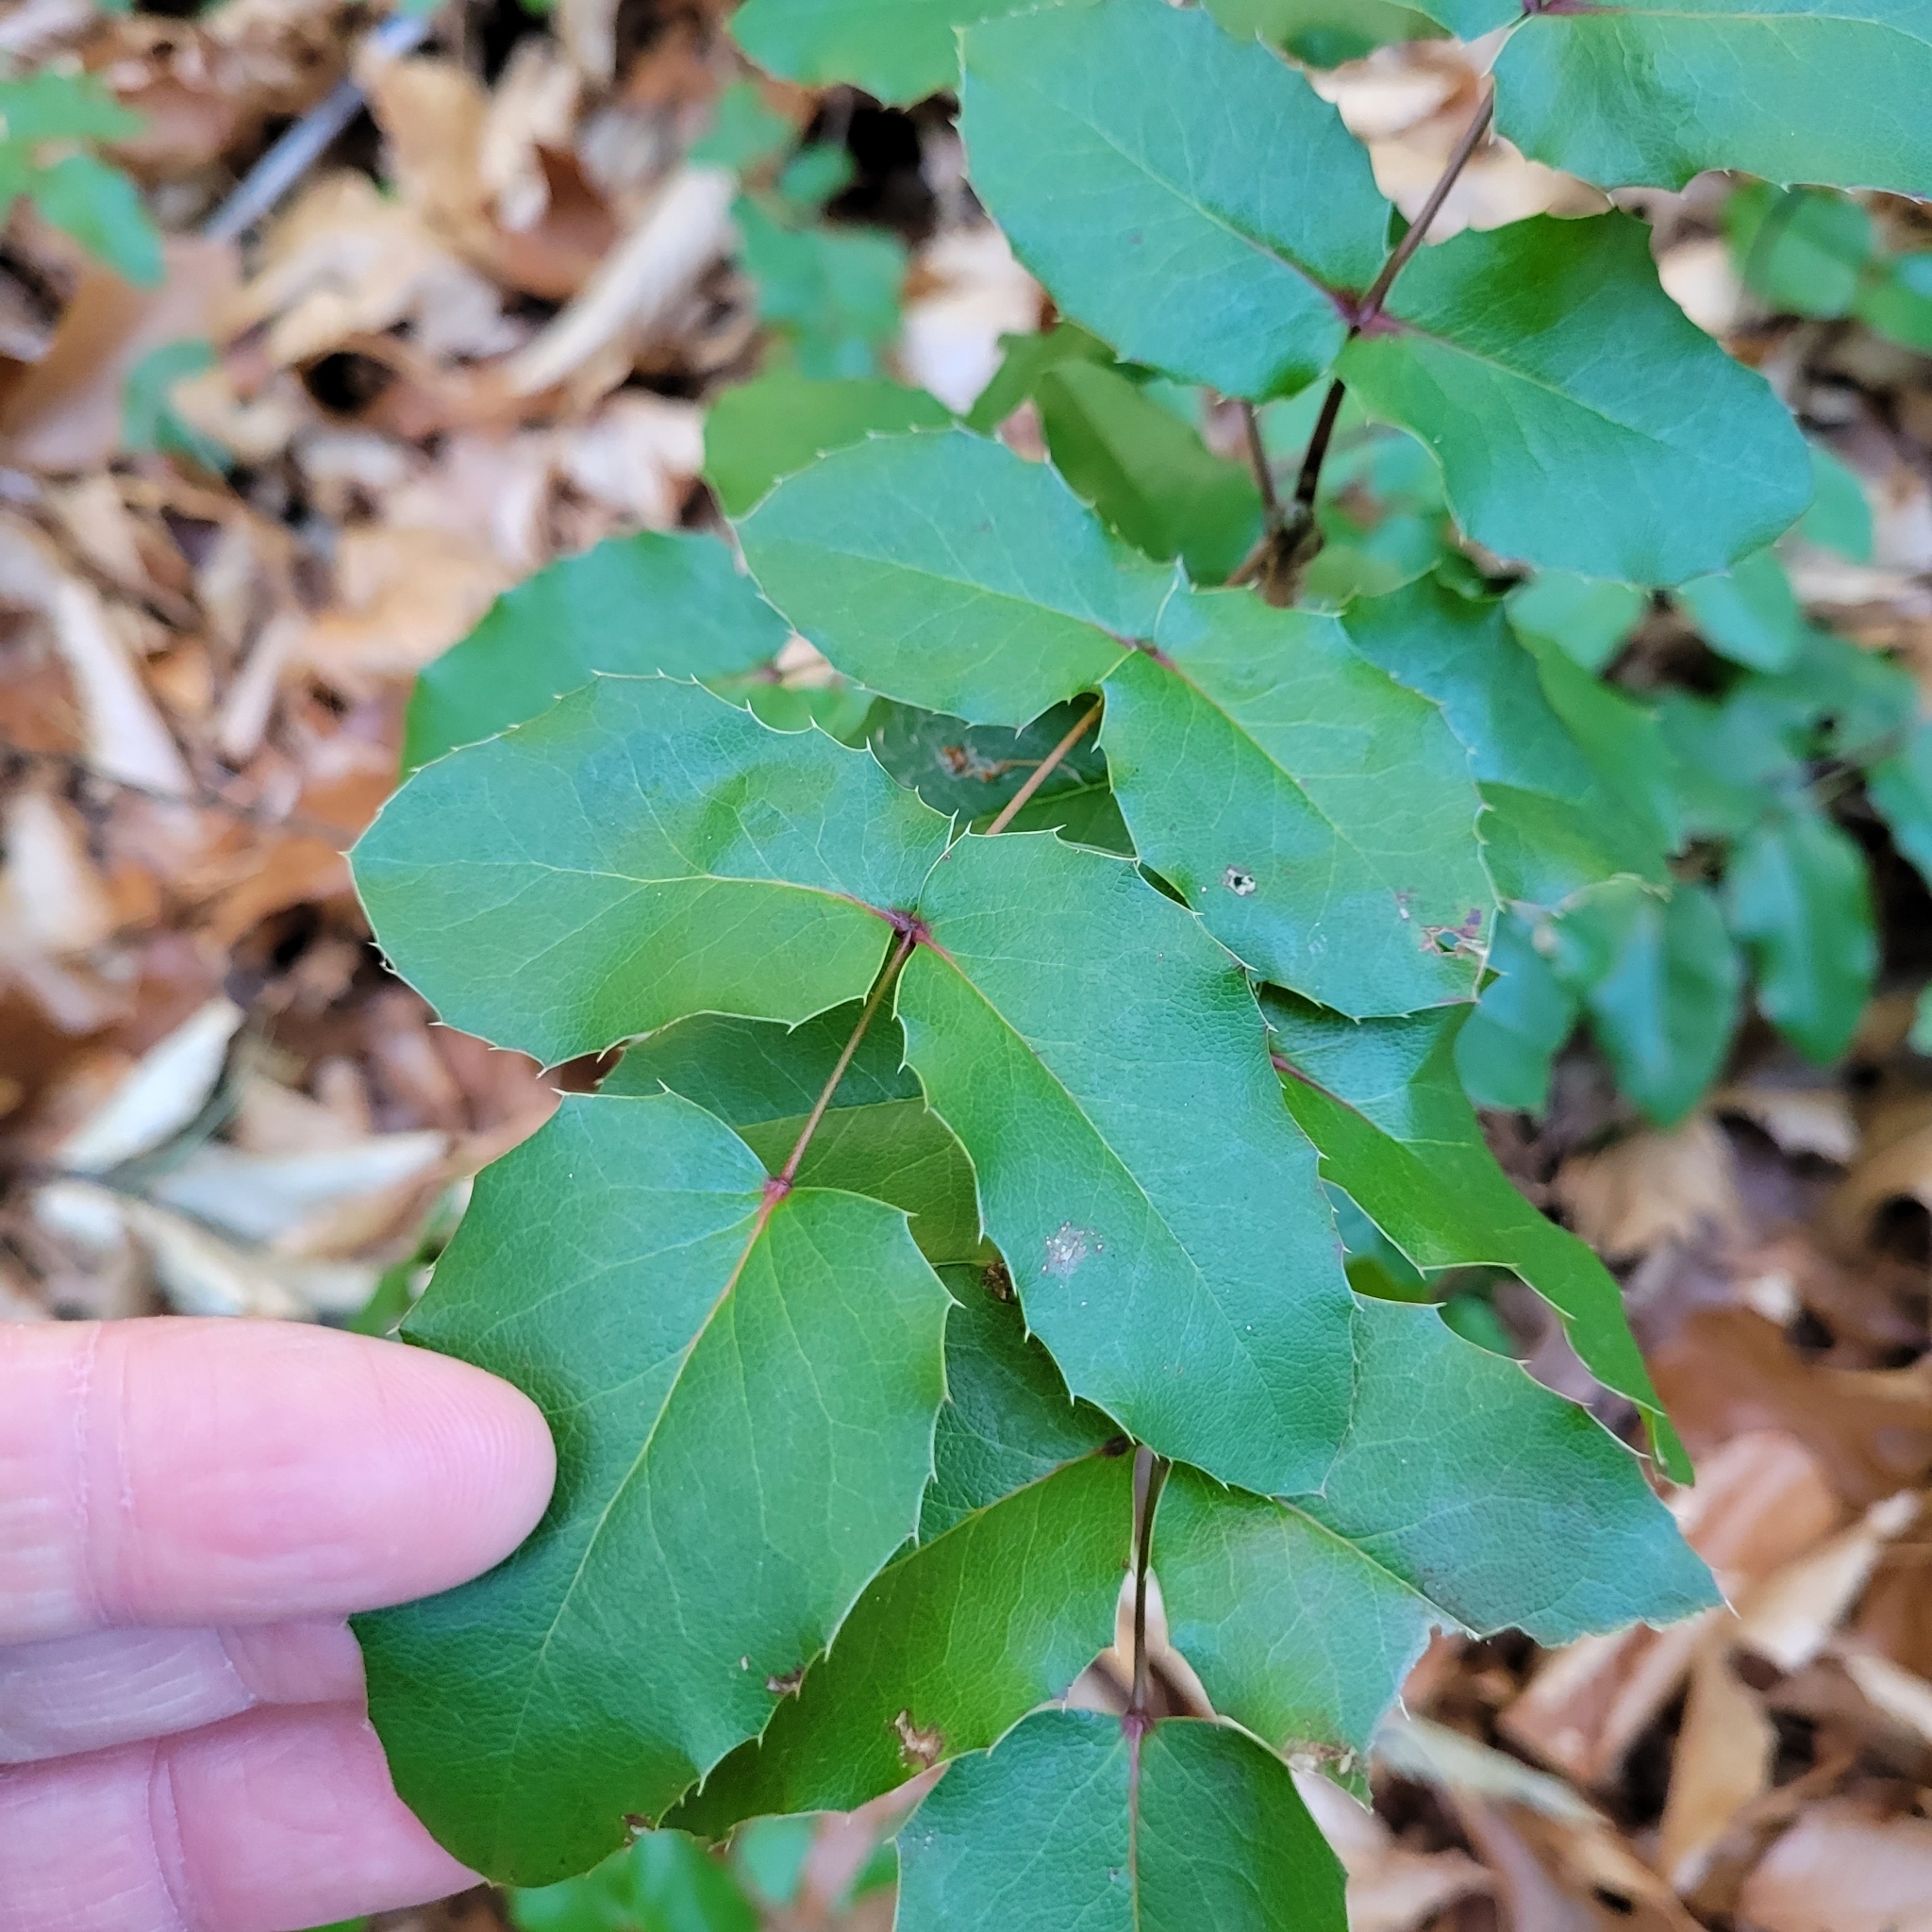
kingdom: Plantae
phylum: Tracheophyta
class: Magnoliopsida
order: Ranunculales
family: Berberidaceae
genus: Mahonia
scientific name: Mahonia aquifolium
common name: Oregon-grape
